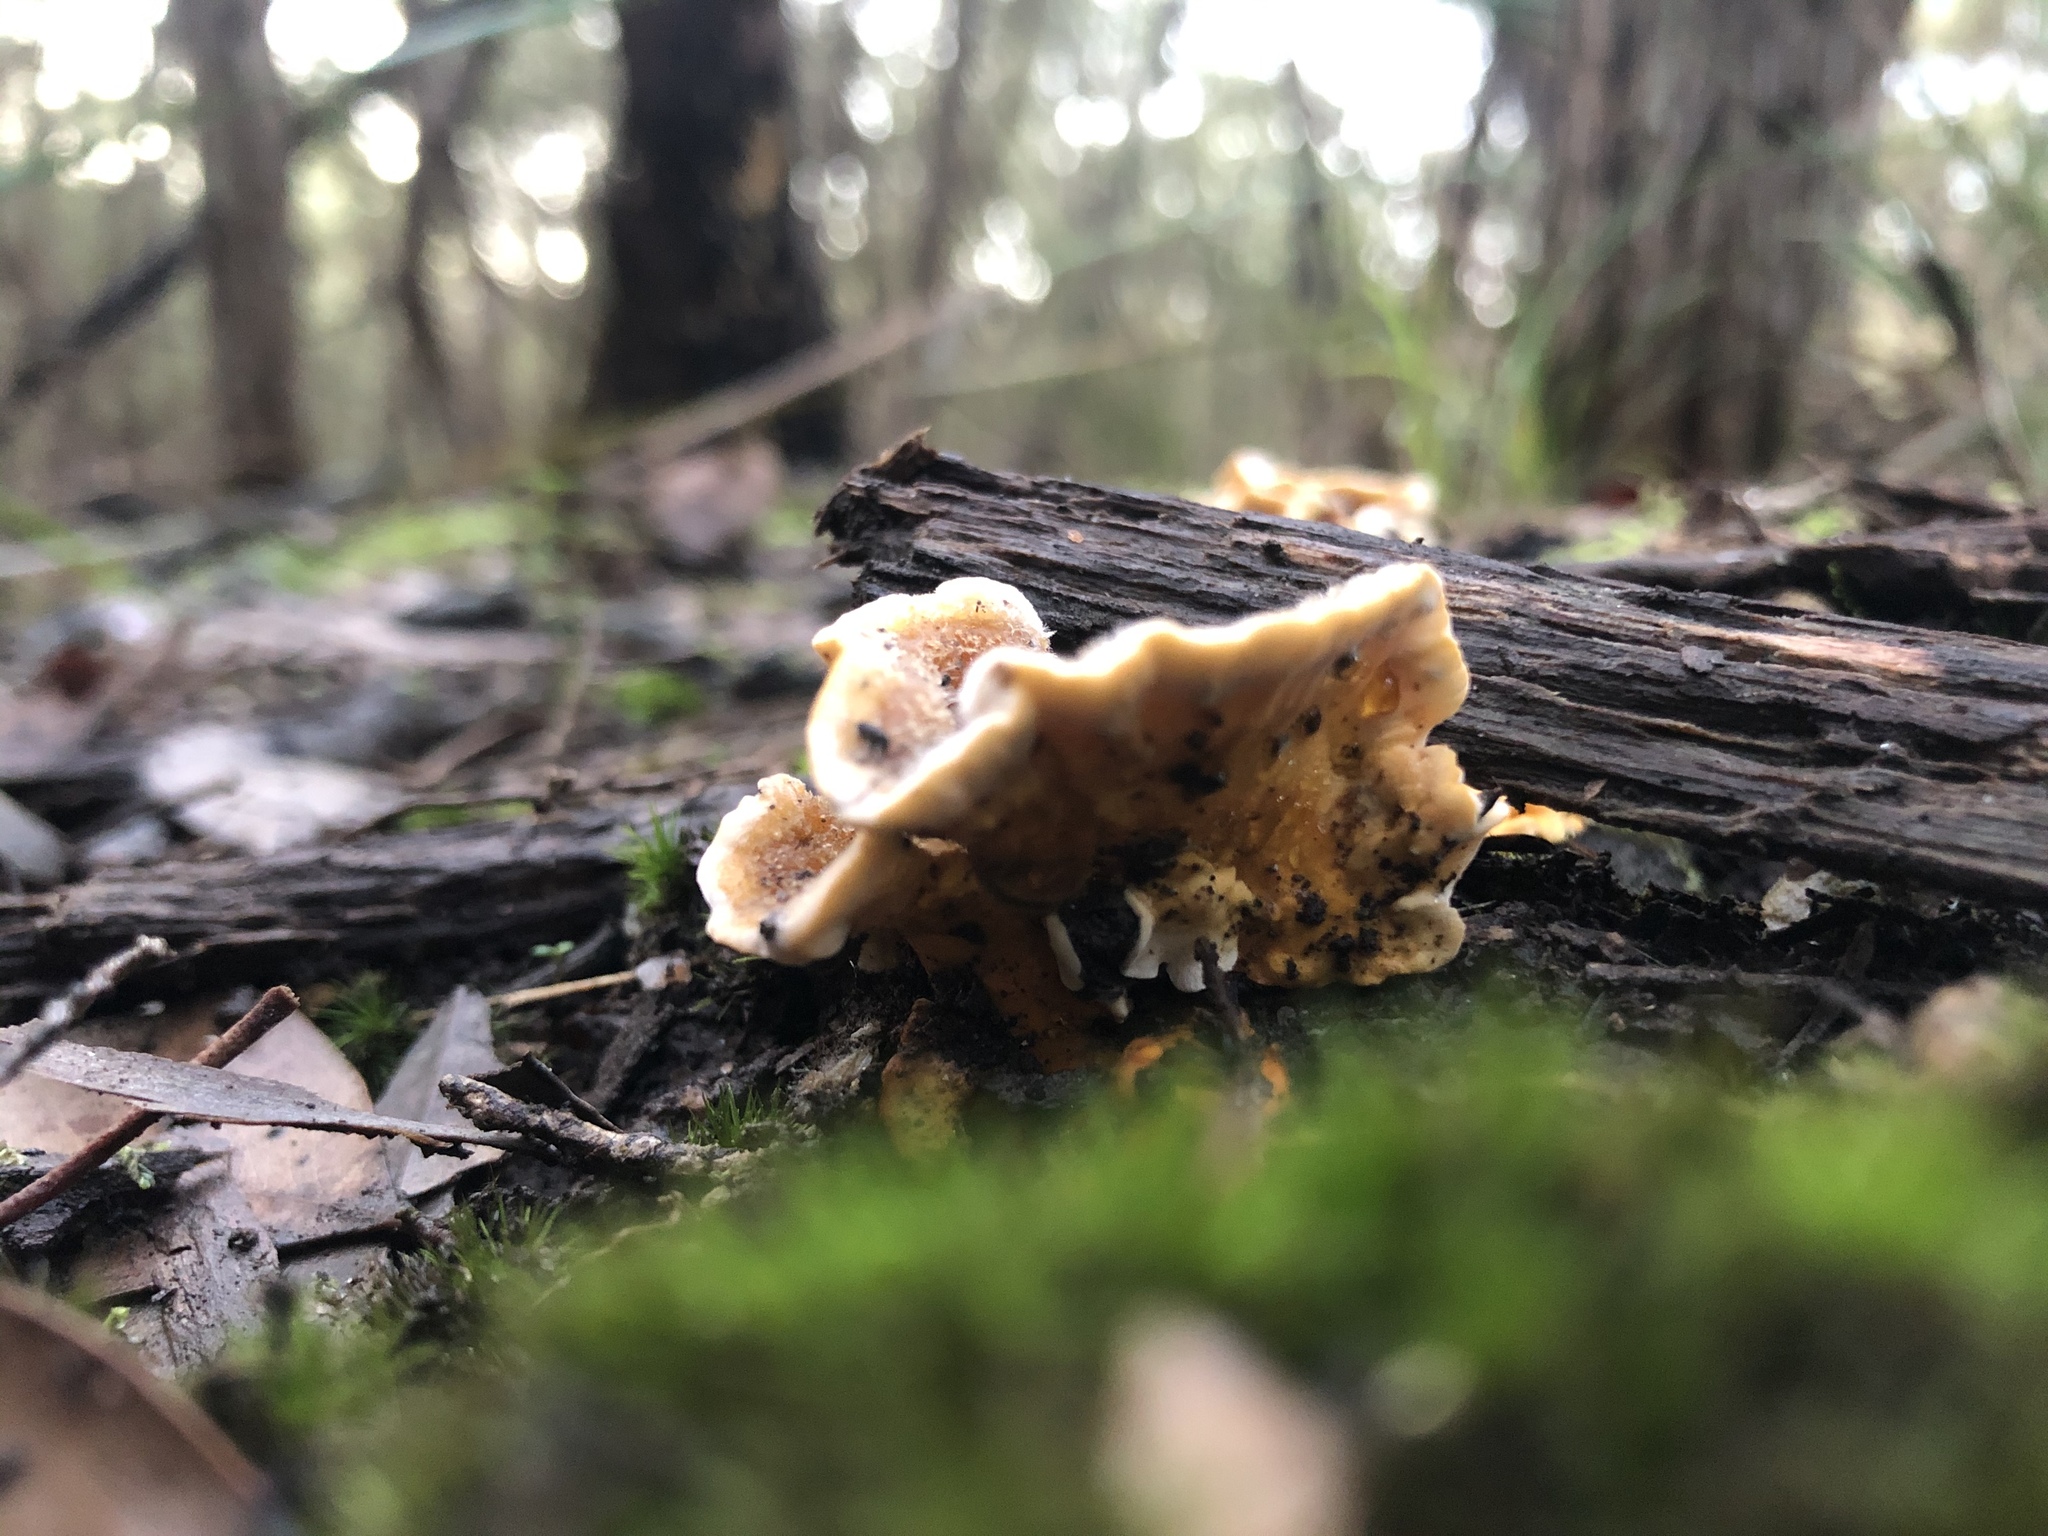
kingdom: Fungi
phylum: Basidiomycota
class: Agaricomycetes
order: Russulales
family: Stereaceae
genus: Stereum
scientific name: Stereum hirsutum
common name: Hairy curtain crust
